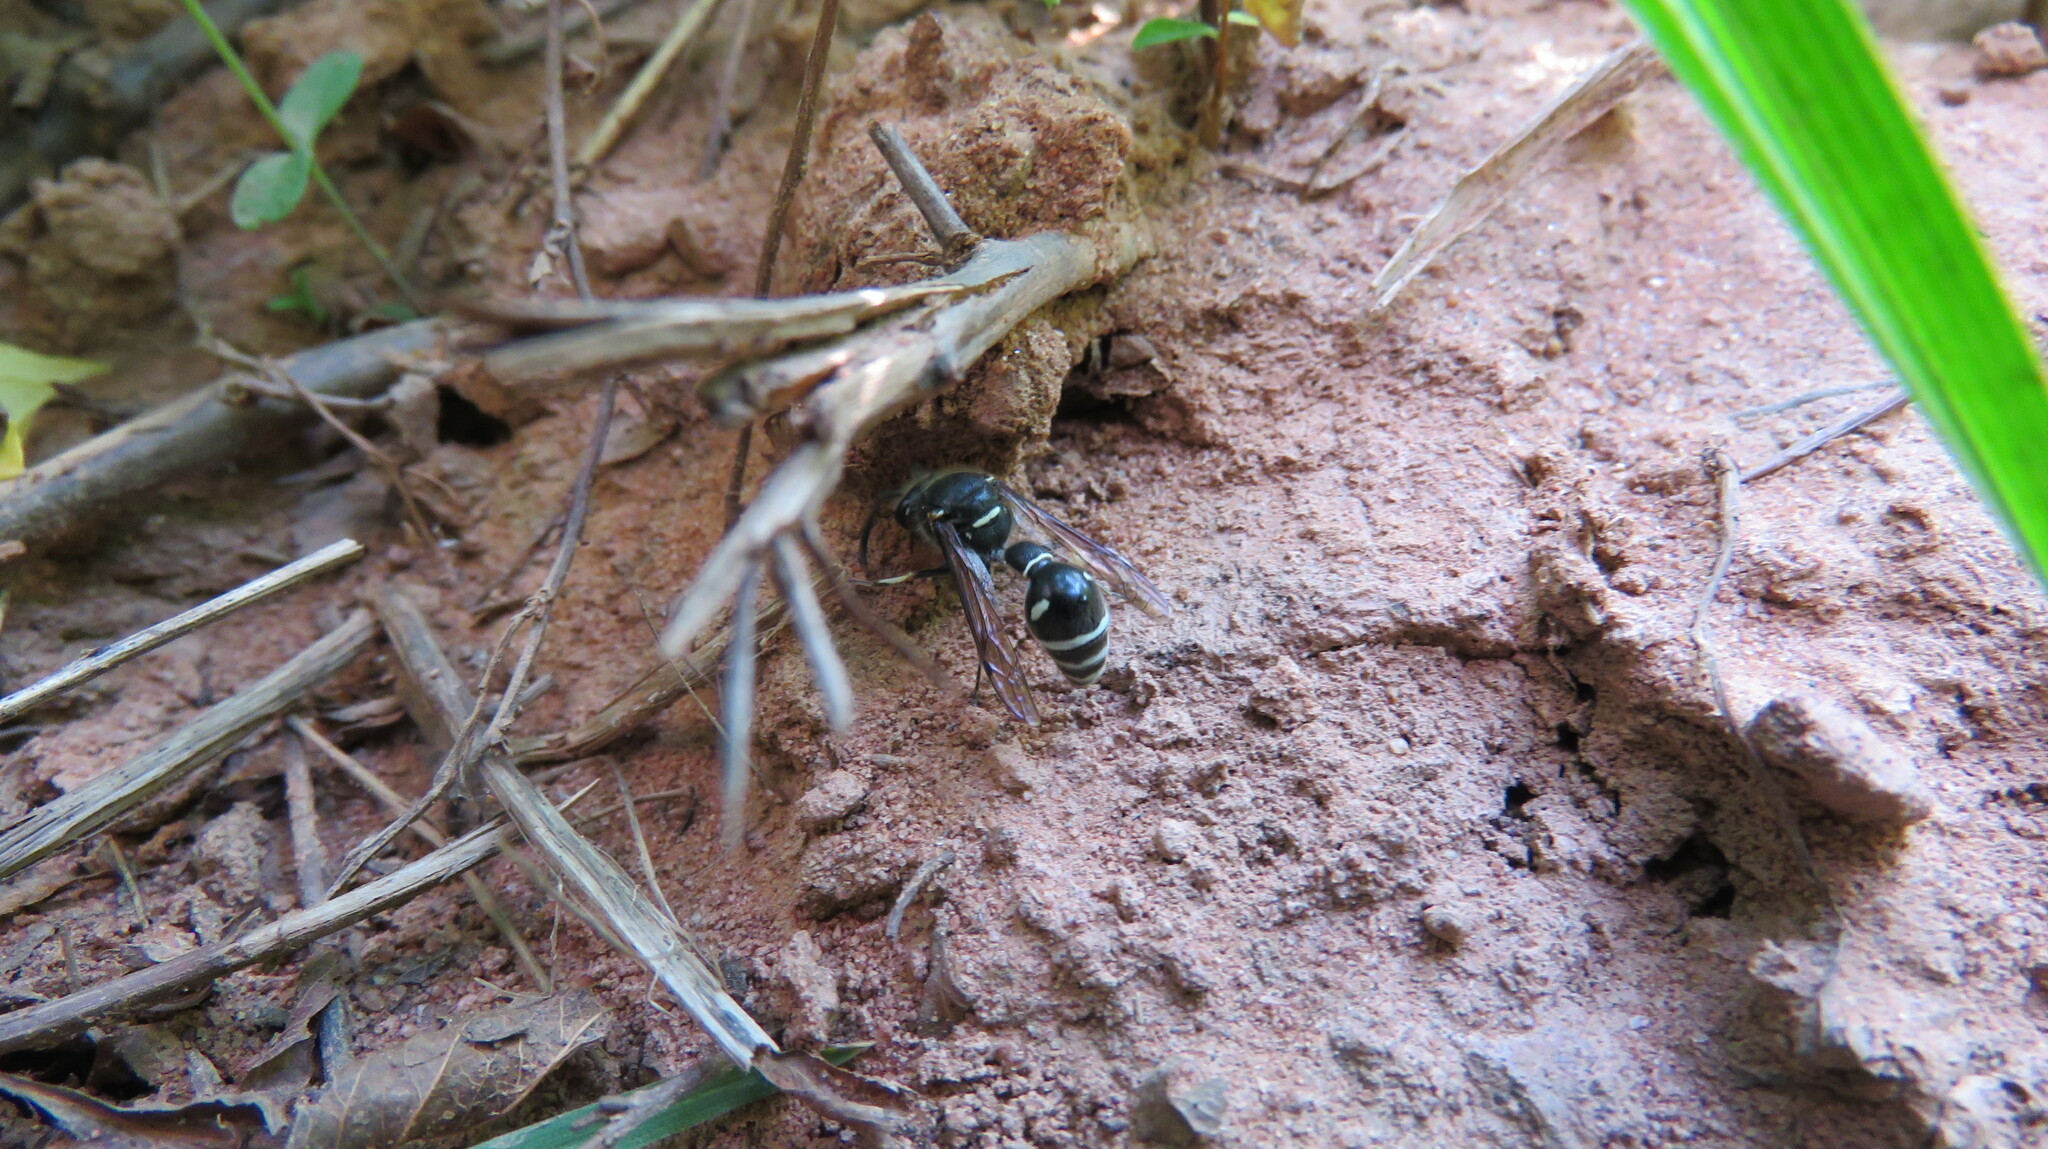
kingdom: Animalia
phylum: Arthropoda
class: Insecta
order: Hymenoptera
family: Vespidae
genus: Eumenes
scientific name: Eumenes crucifera
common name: Cross potter wasp
